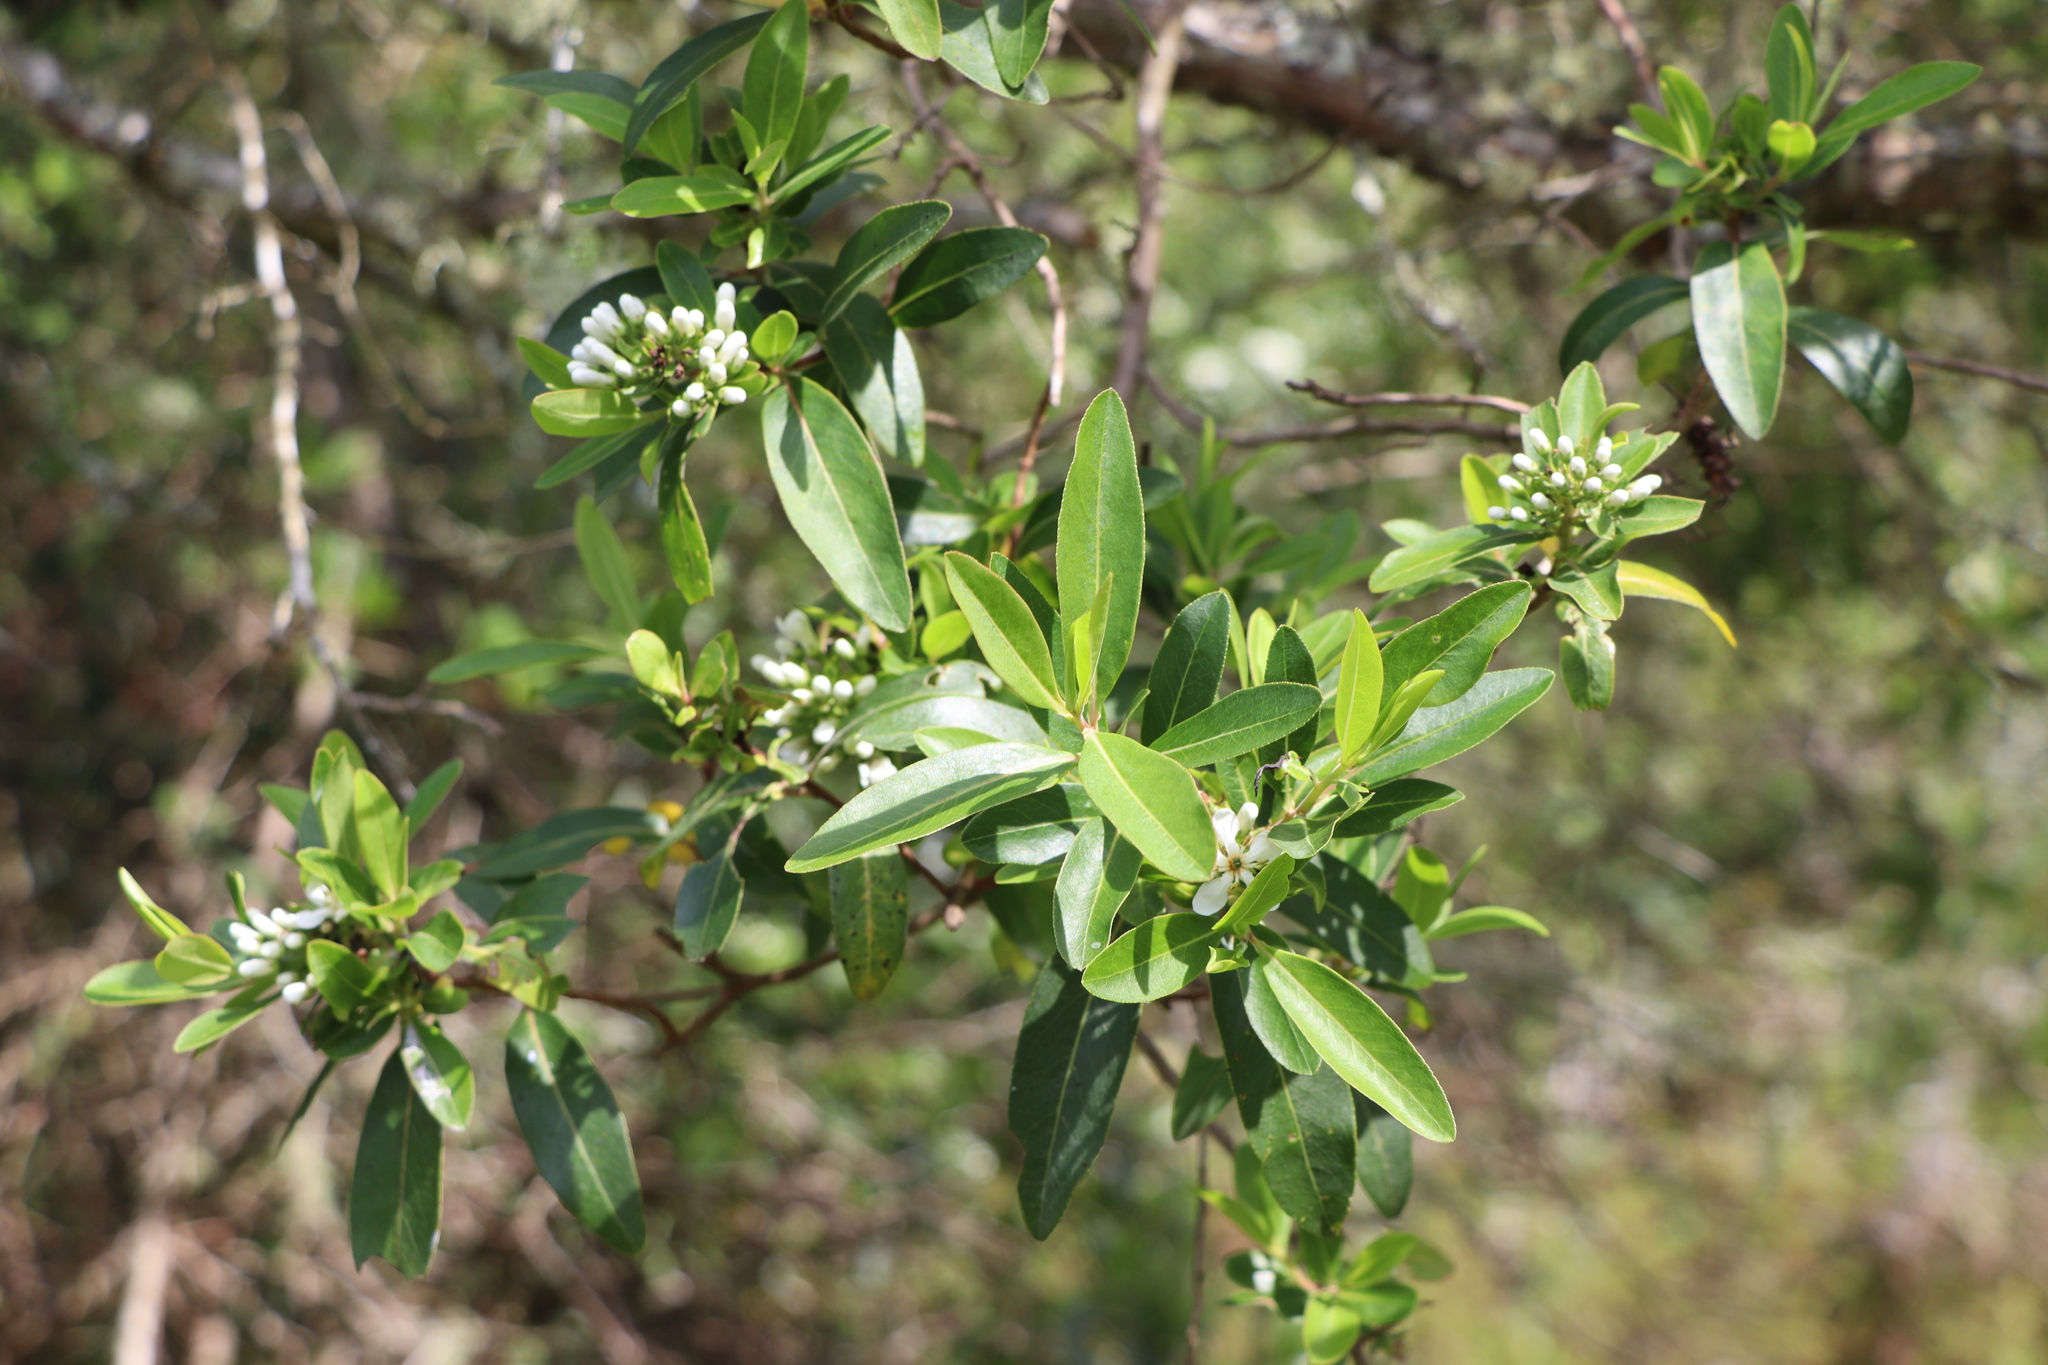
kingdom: Plantae
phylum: Tracheophyta
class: Magnoliopsida
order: Escalloniales
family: Escalloniaceae
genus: Escallonia
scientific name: Escallonia bifida
